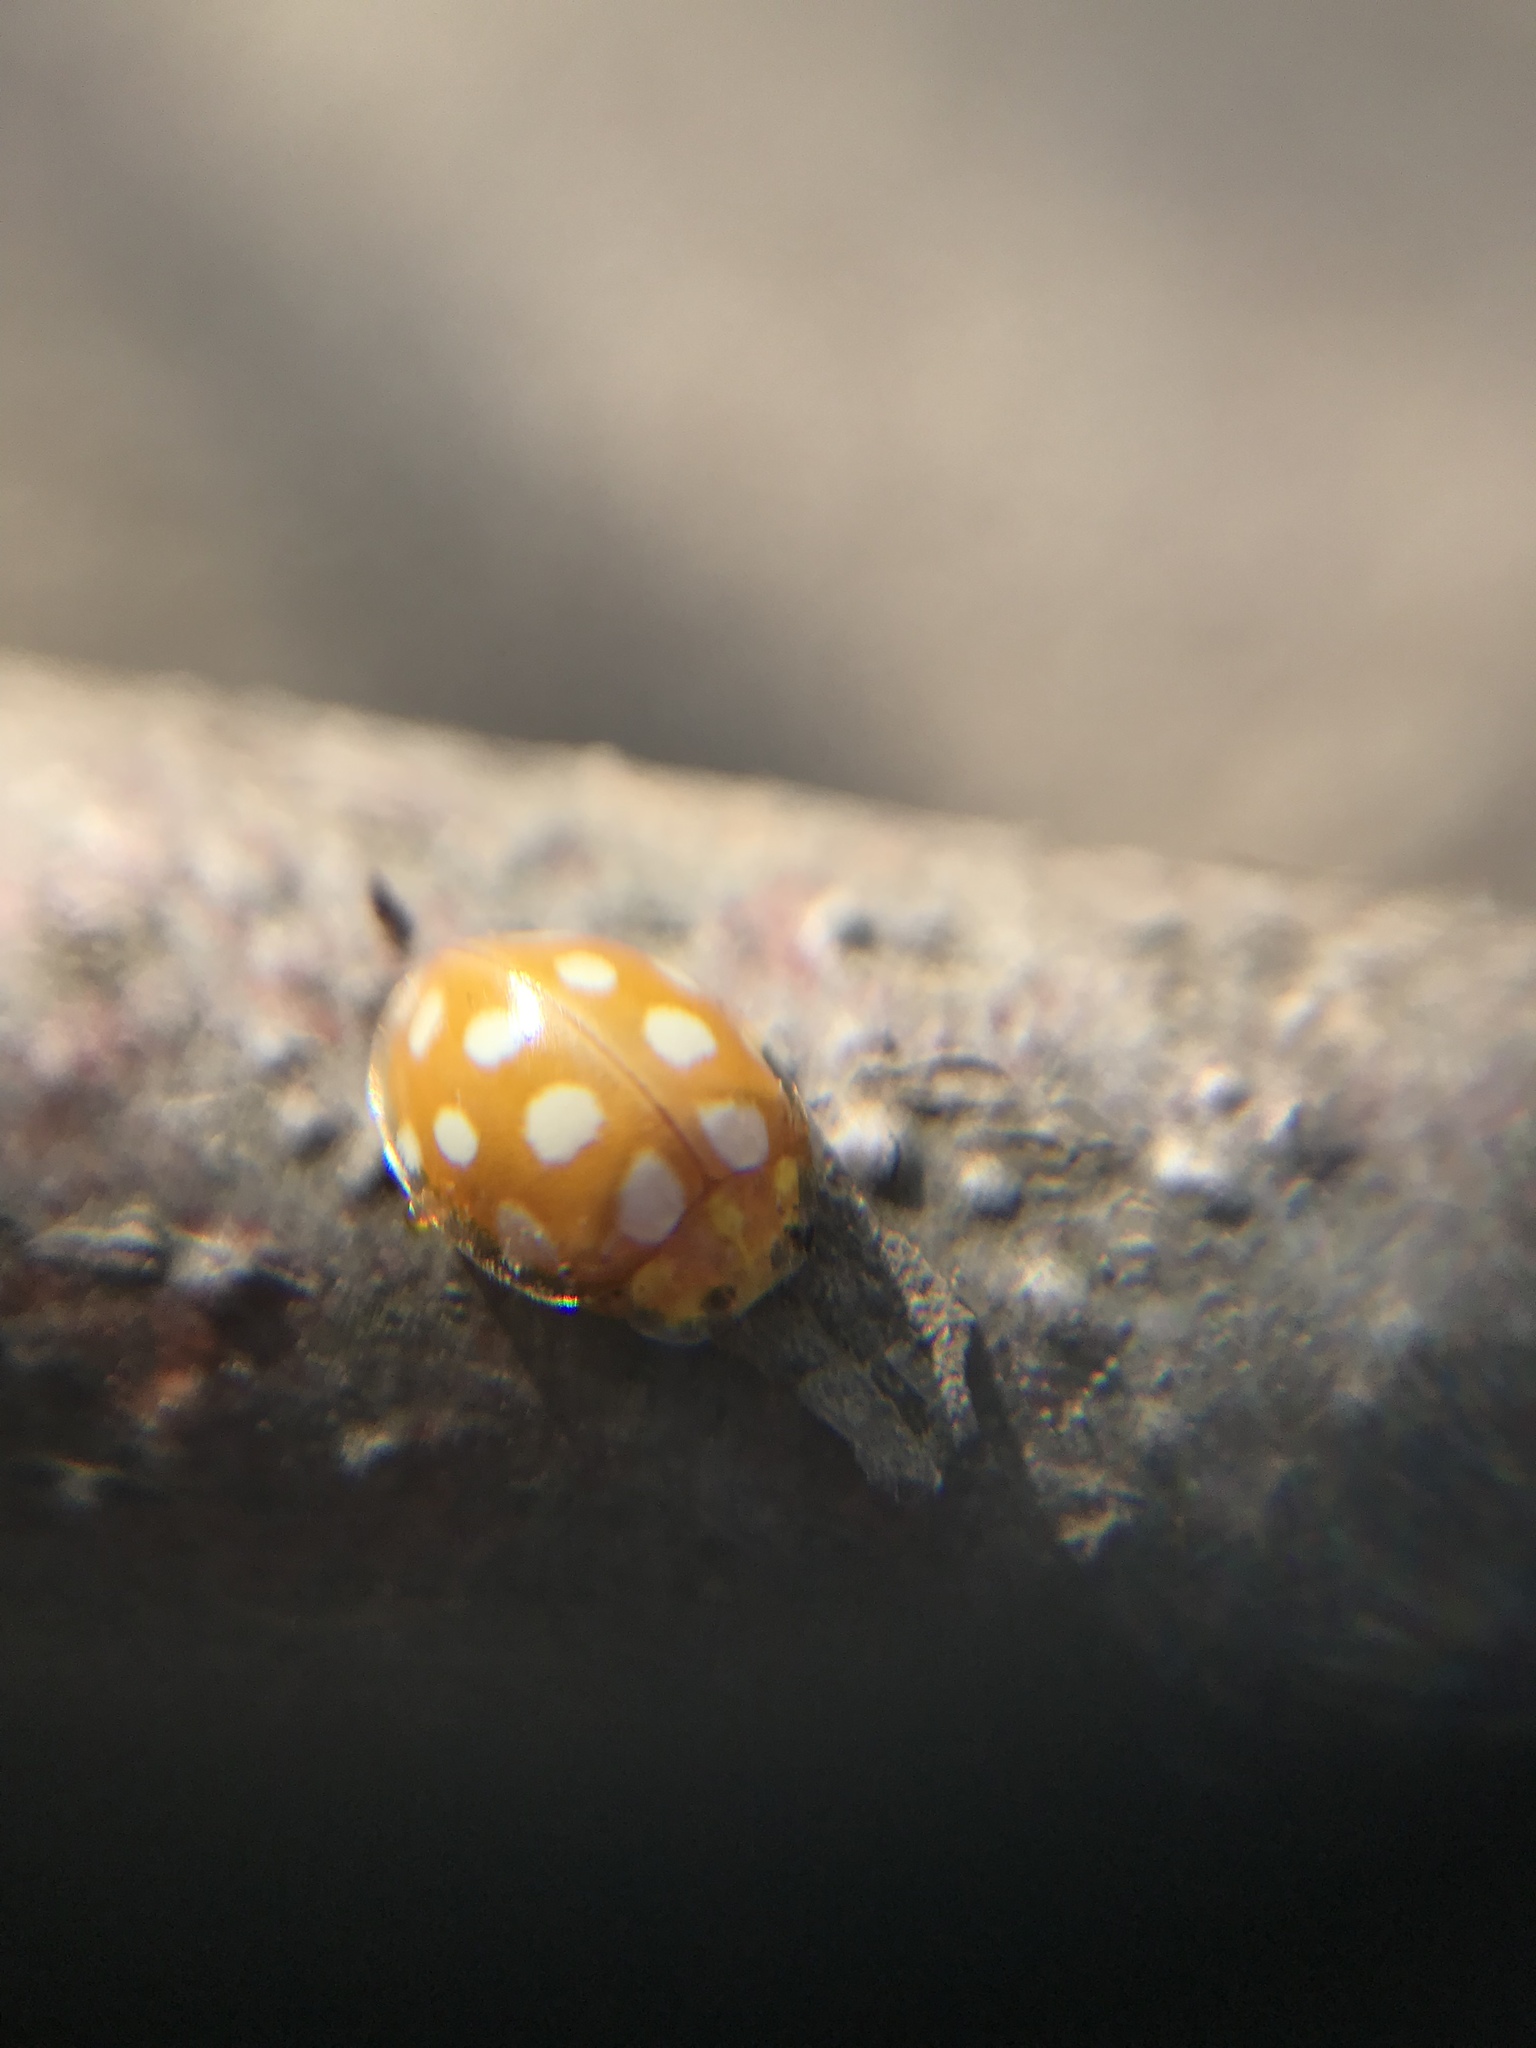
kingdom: Animalia
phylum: Arthropoda
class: Insecta
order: Coleoptera
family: Coccinellidae
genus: Halyzia
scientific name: Halyzia sedecimguttata
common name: Orange ladybird
